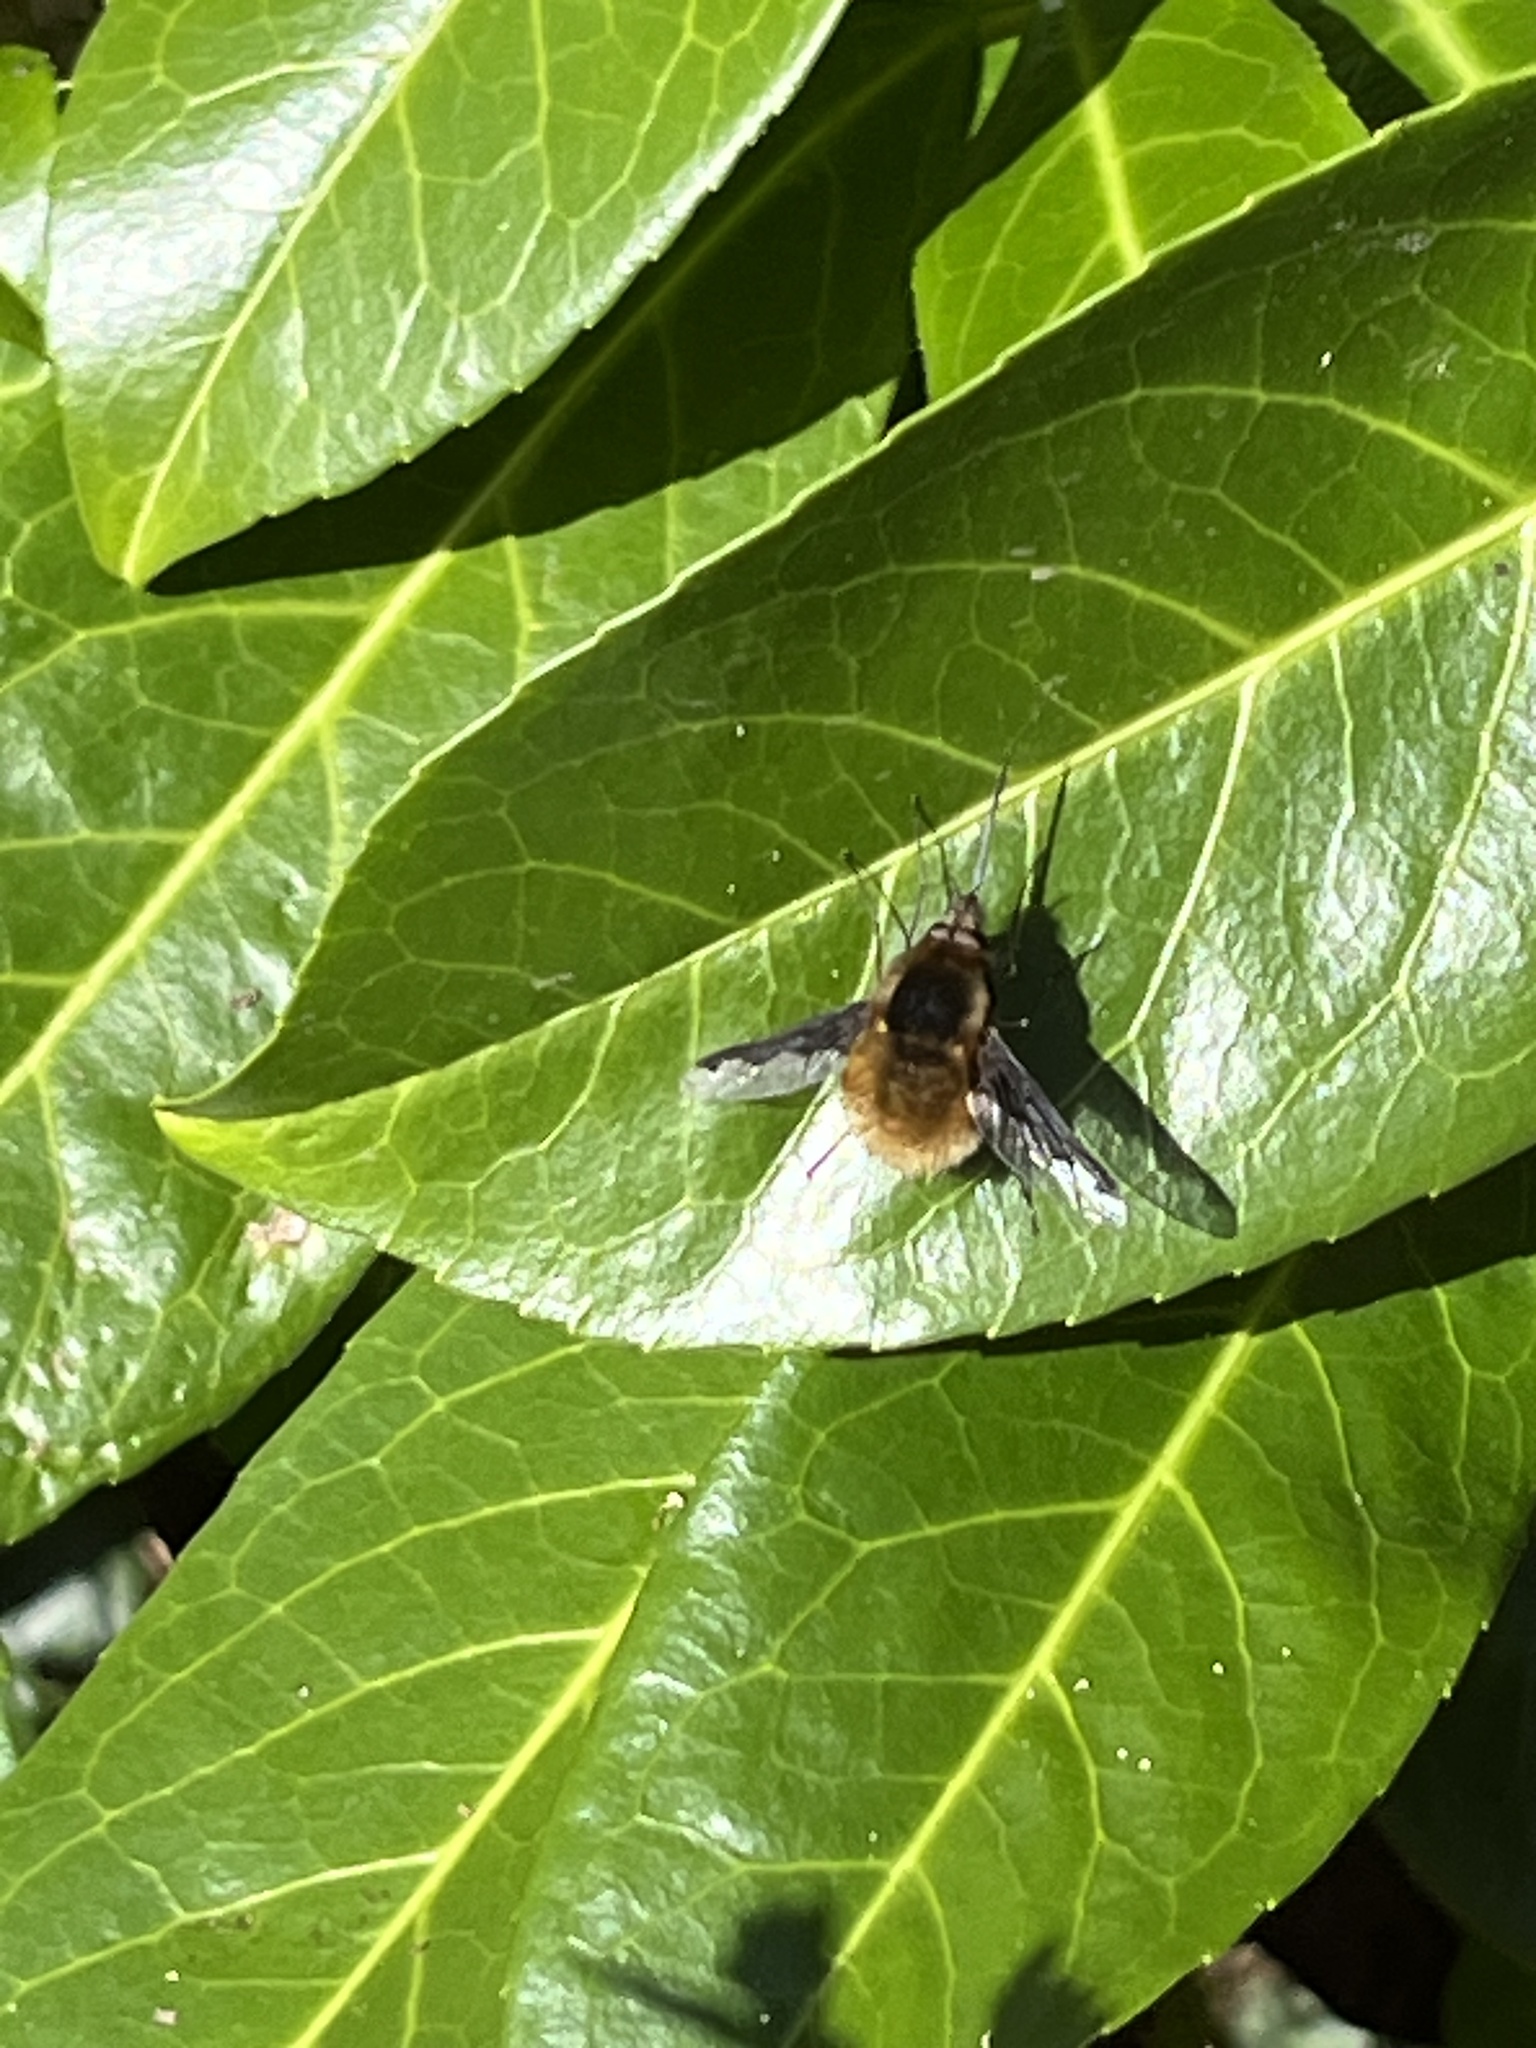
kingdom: Animalia
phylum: Arthropoda
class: Insecta
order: Diptera
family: Bombyliidae
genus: Bombylius
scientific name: Bombylius major
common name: Bee fly
